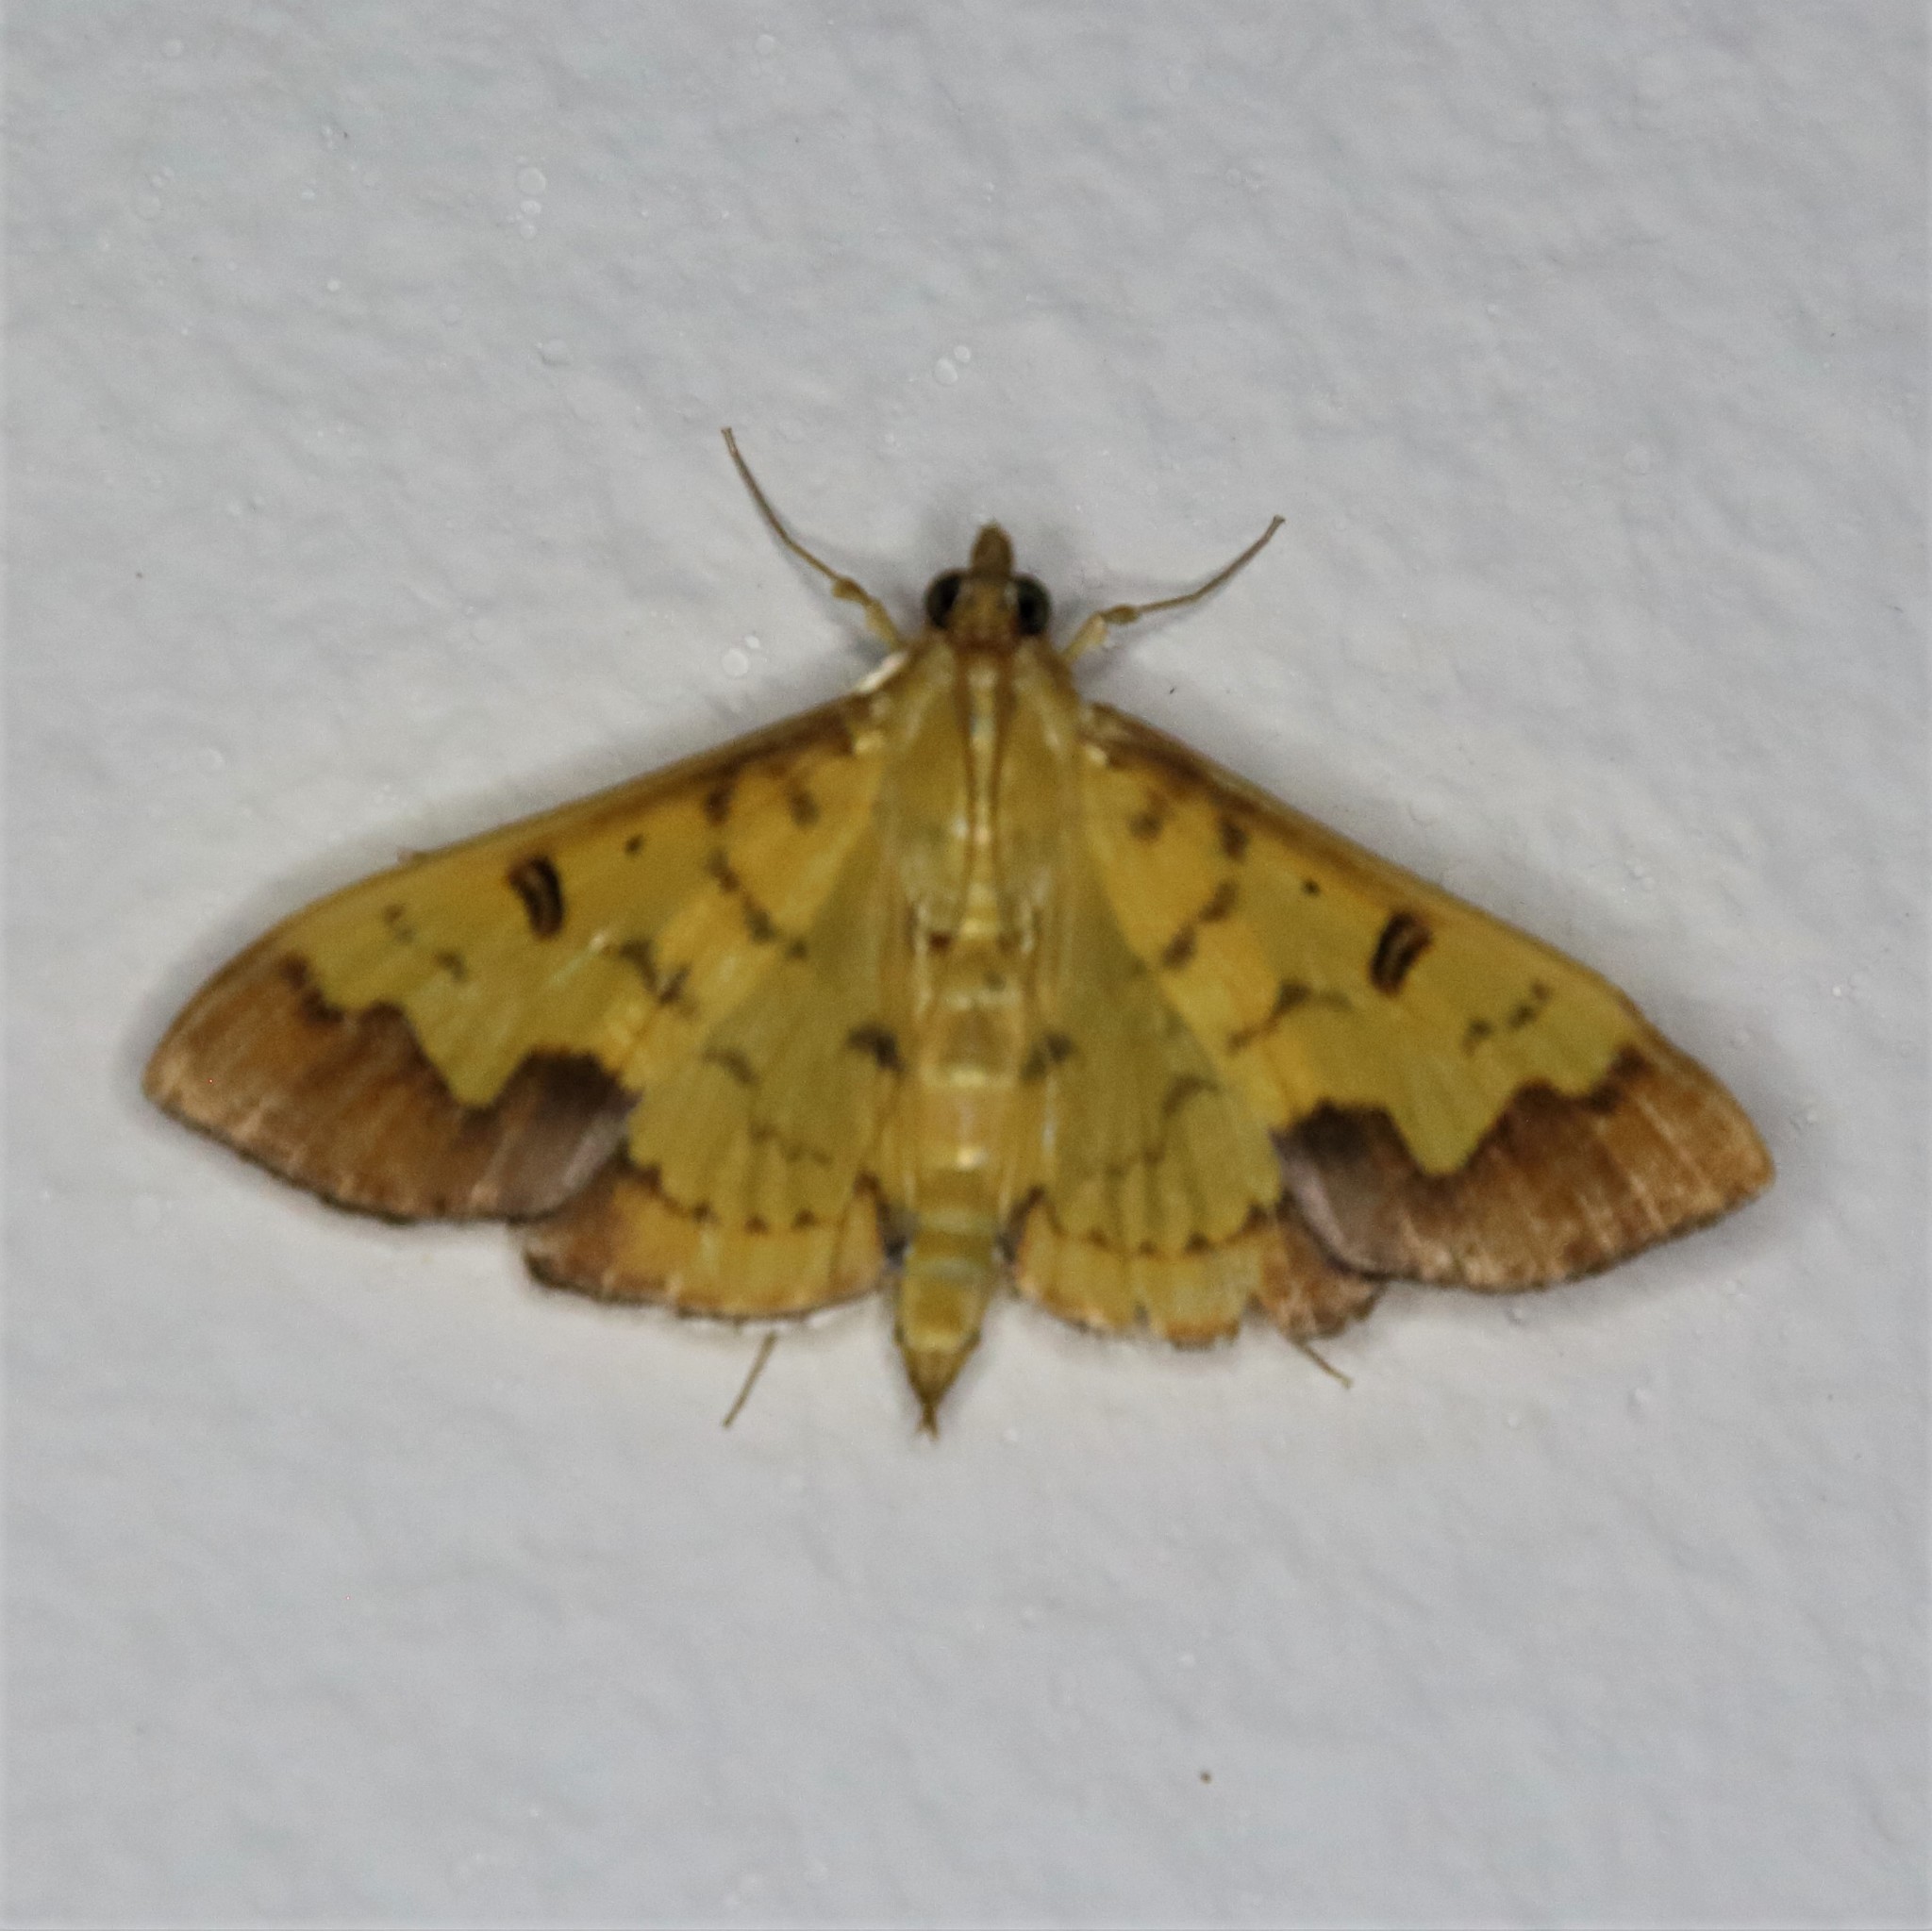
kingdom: Animalia
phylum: Arthropoda
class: Insecta
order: Lepidoptera
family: Crambidae
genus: Meroctena
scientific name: Meroctena tullalis
